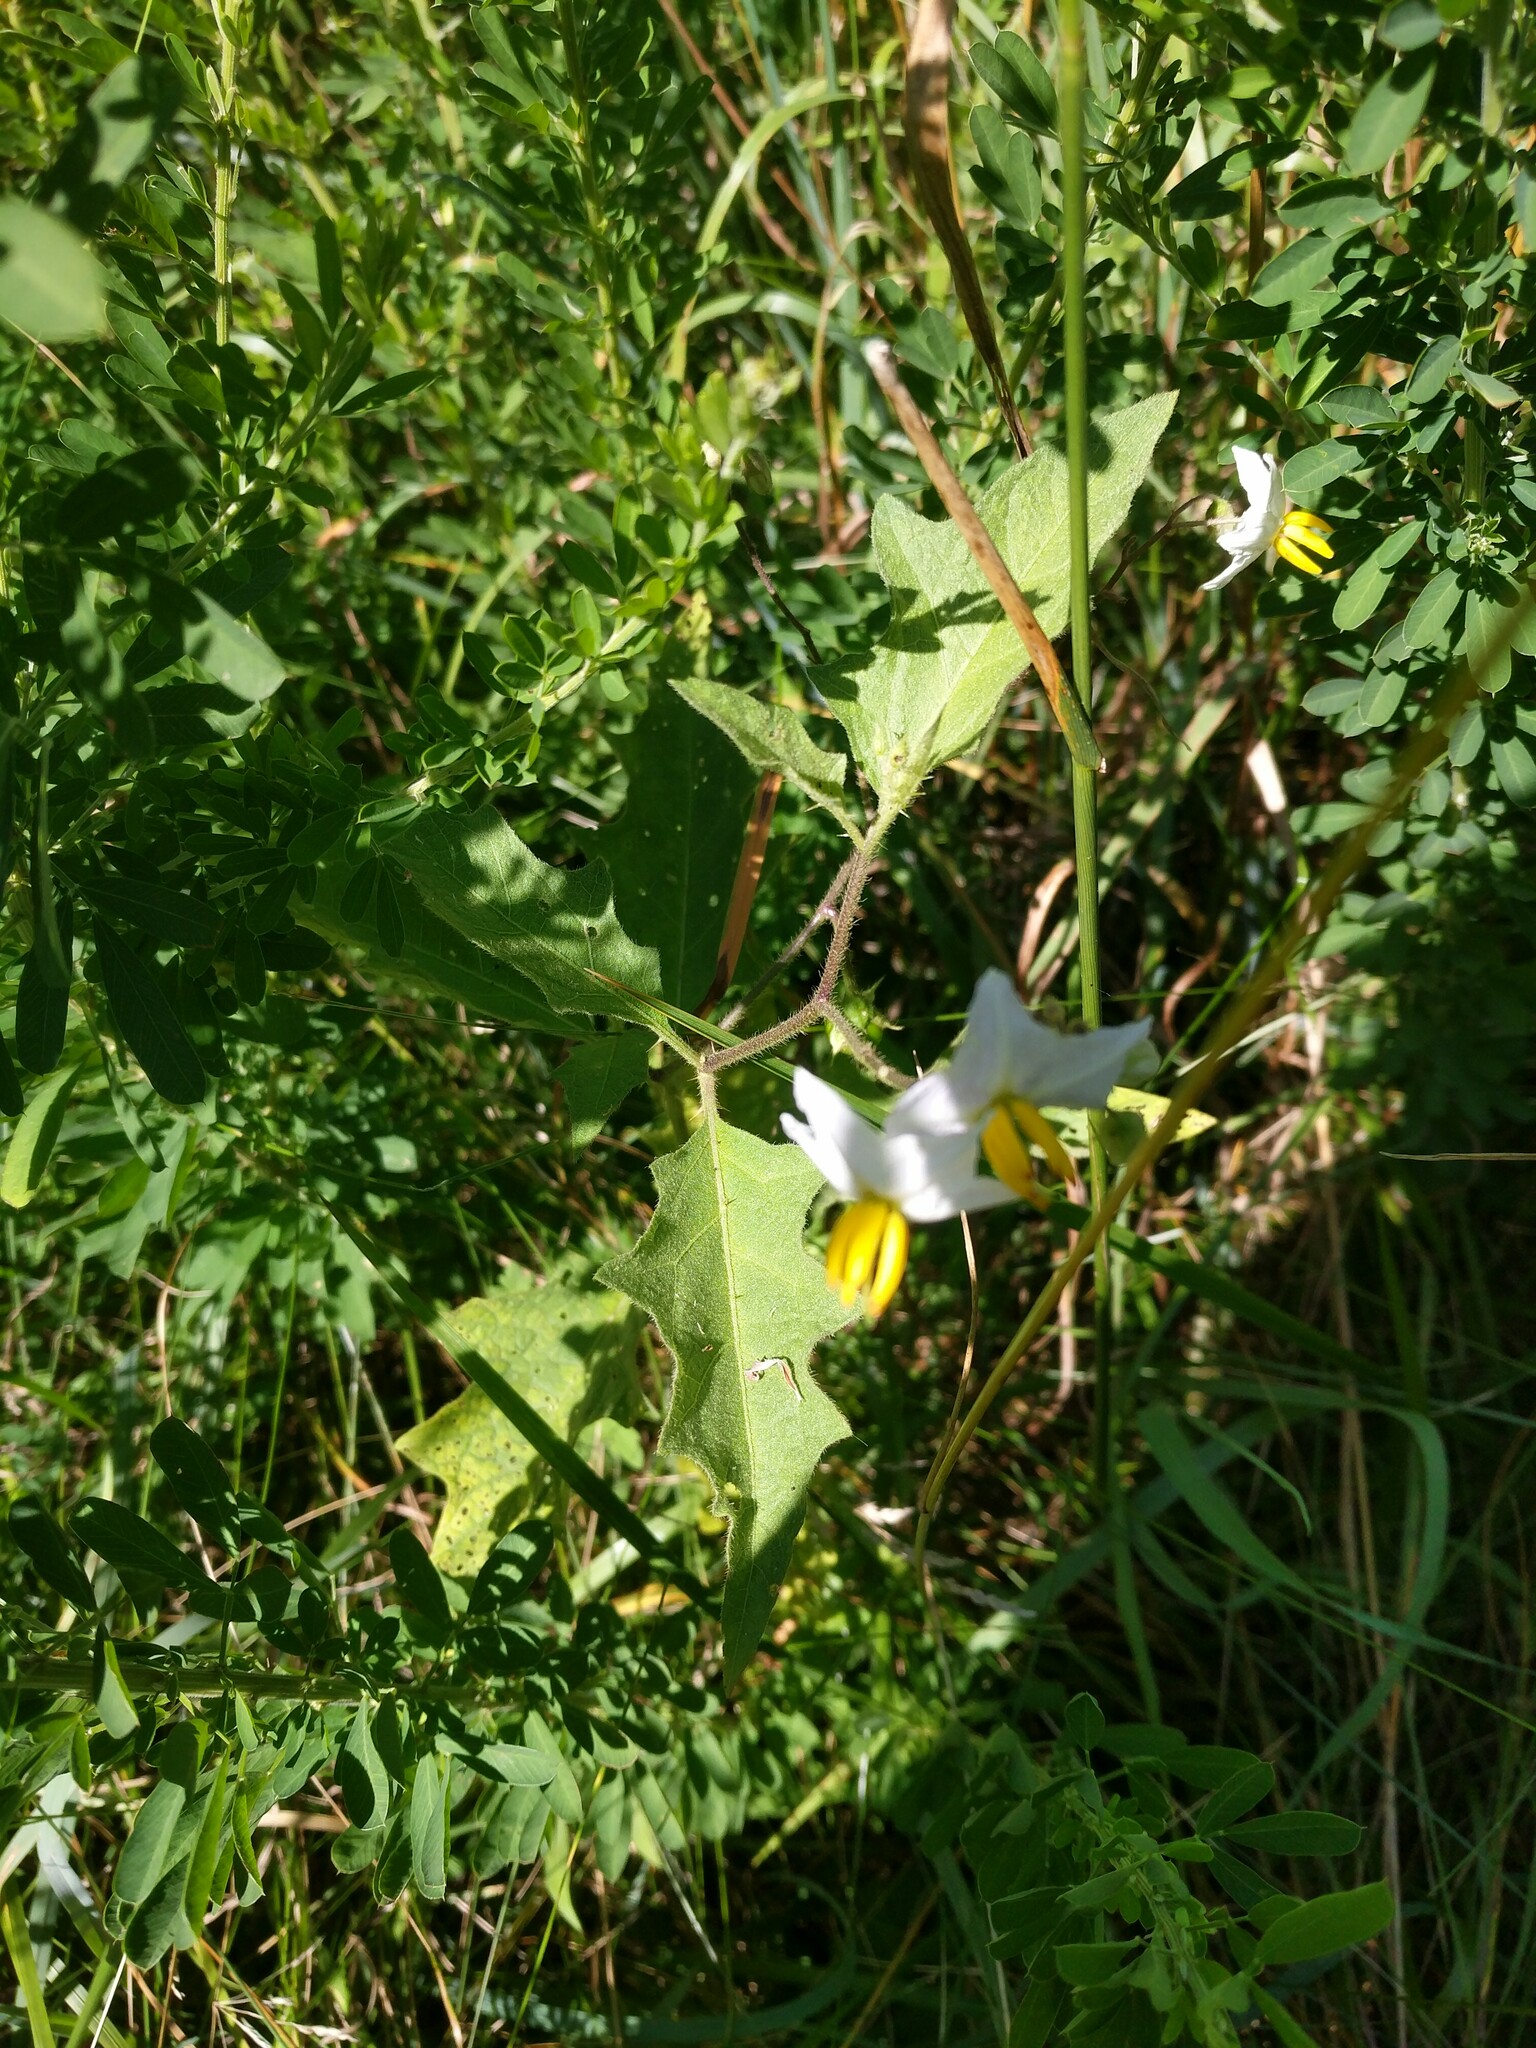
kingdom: Plantae
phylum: Tracheophyta
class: Magnoliopsida
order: Solanales
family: Solanaceae
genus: Solanum
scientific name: Solanum carolinense
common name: Horse-nettle
